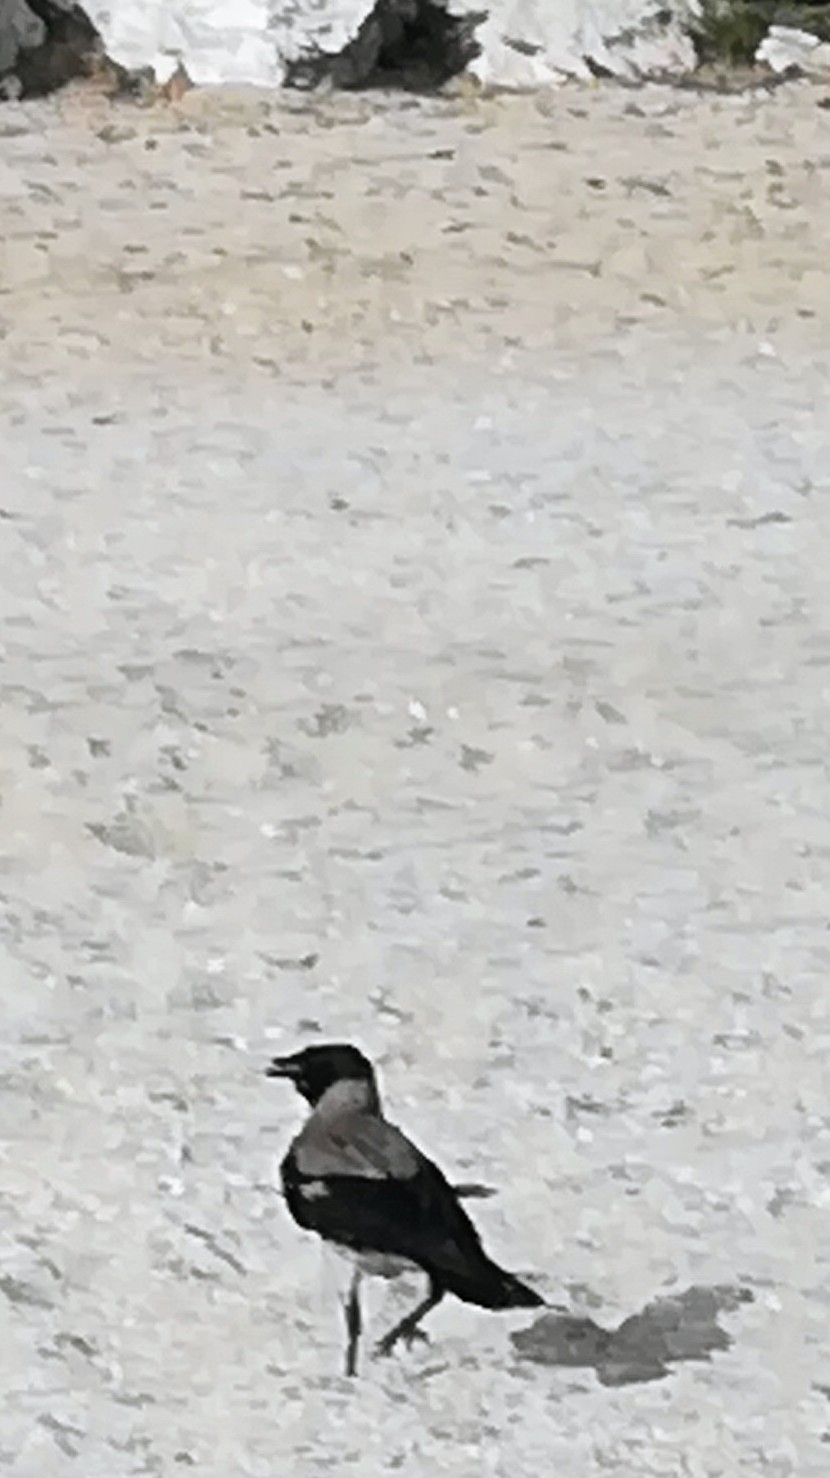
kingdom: Animalia
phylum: Chordata
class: Aves
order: Passeriformes
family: Corvidae
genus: Corvus
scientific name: Corvus cornix
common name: Hooded crow
